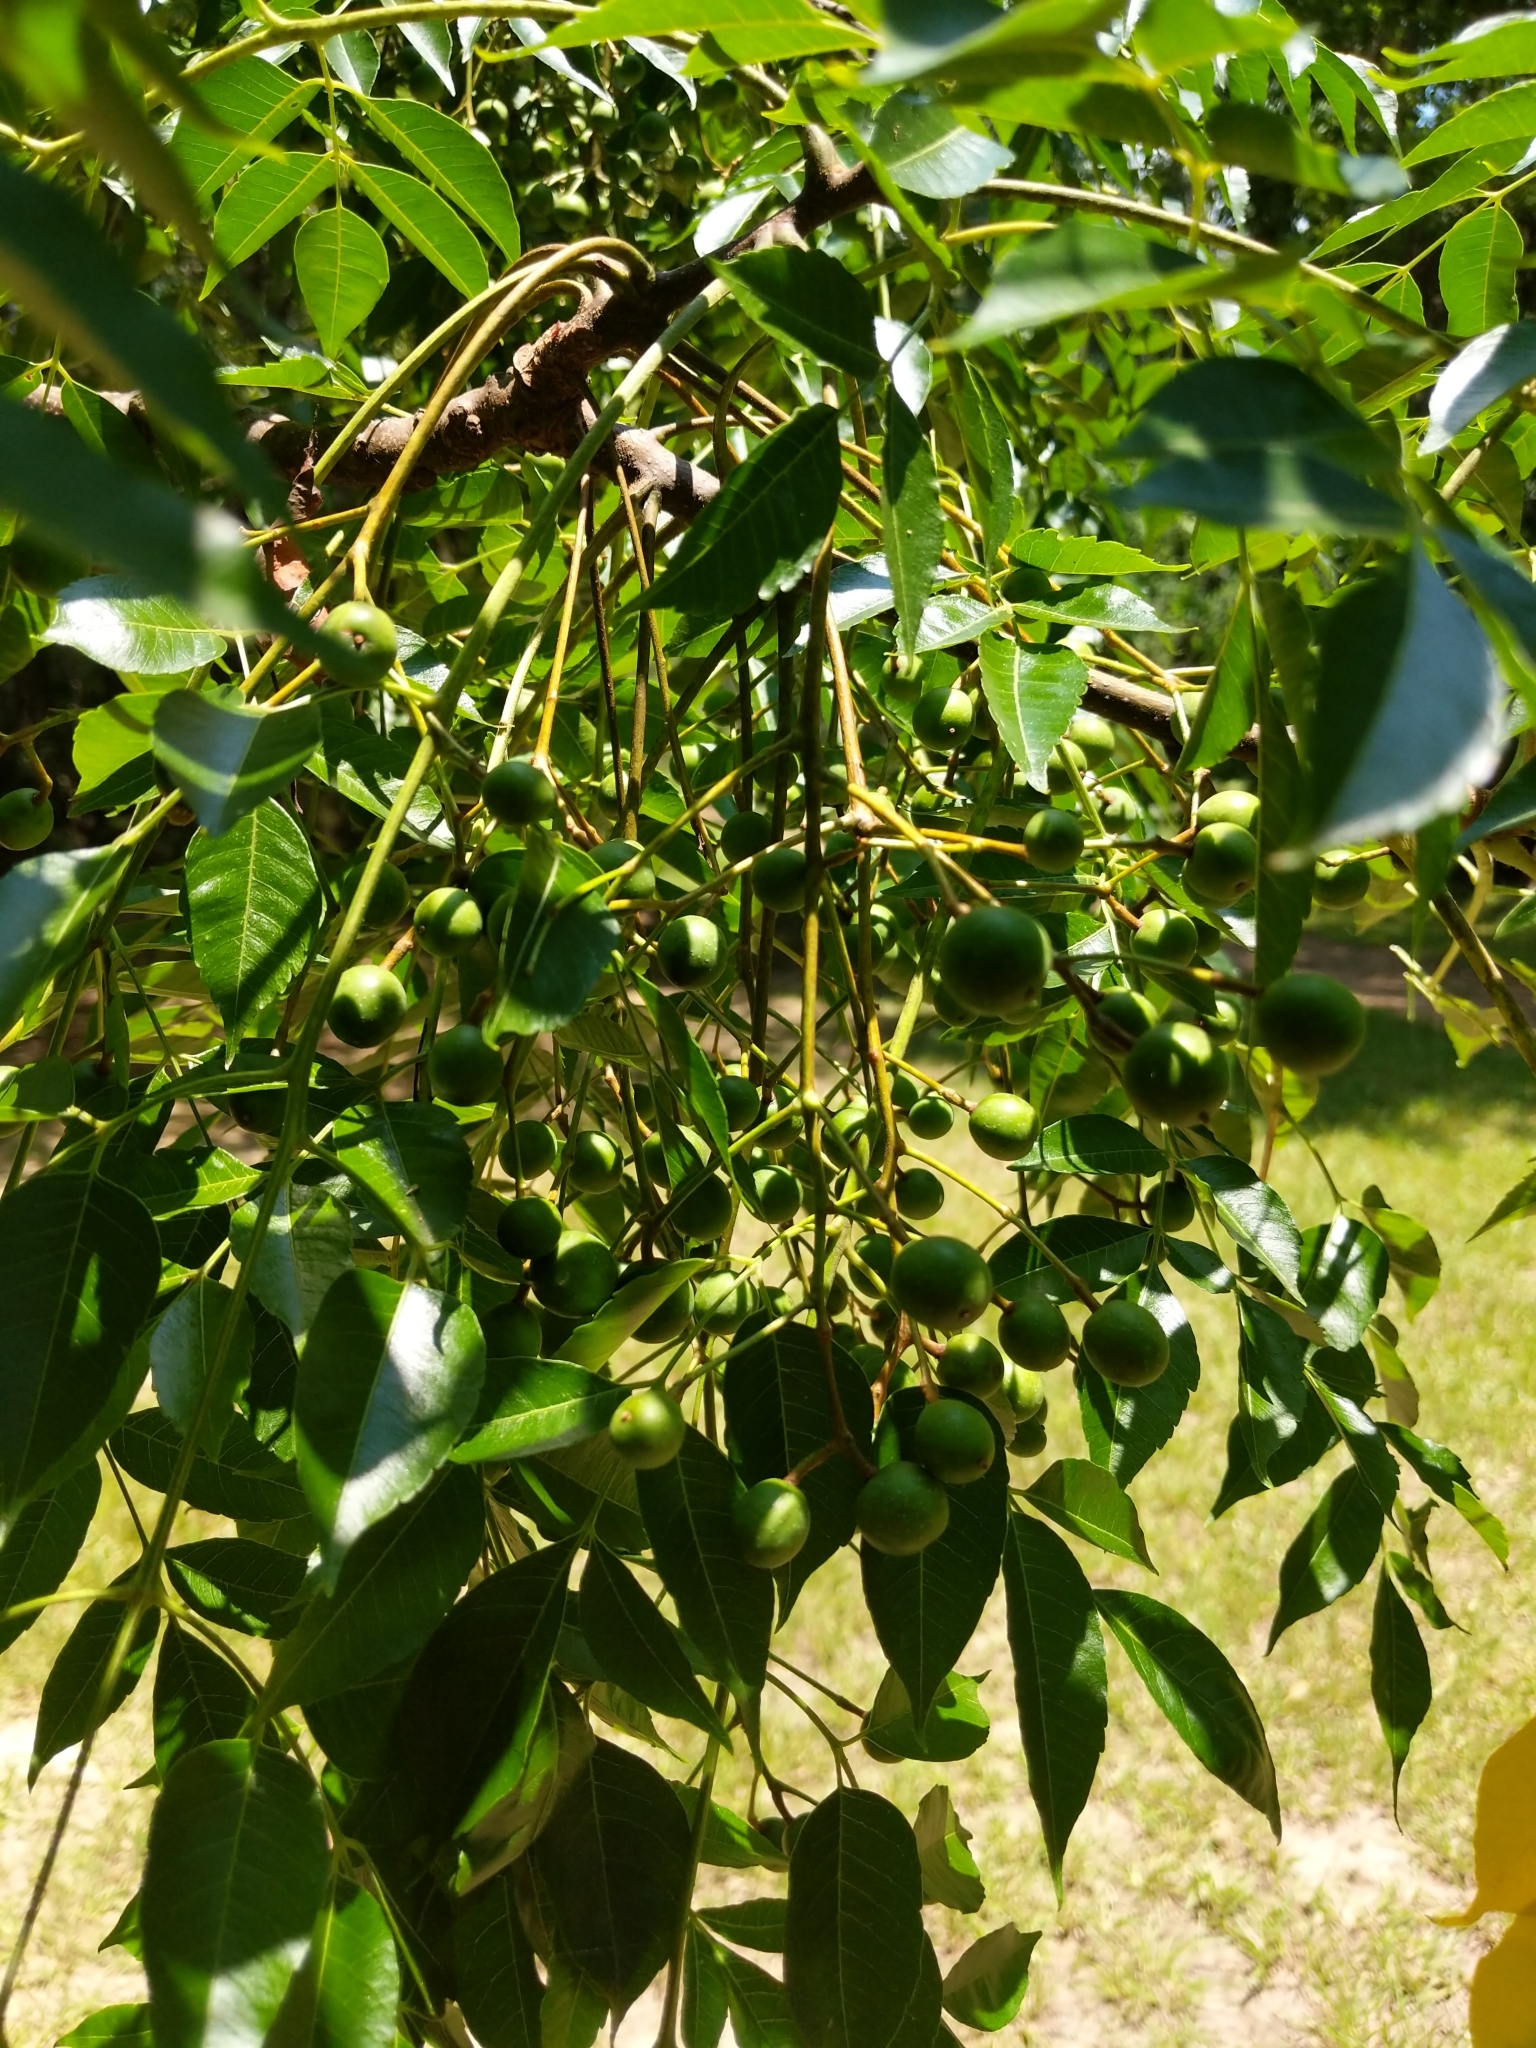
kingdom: Plantae
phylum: Tracheophyta
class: Magnoliopsida
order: Sapindales
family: Meliaceae
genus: Melia
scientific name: Melia azedarach
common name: Chinaberrytree
